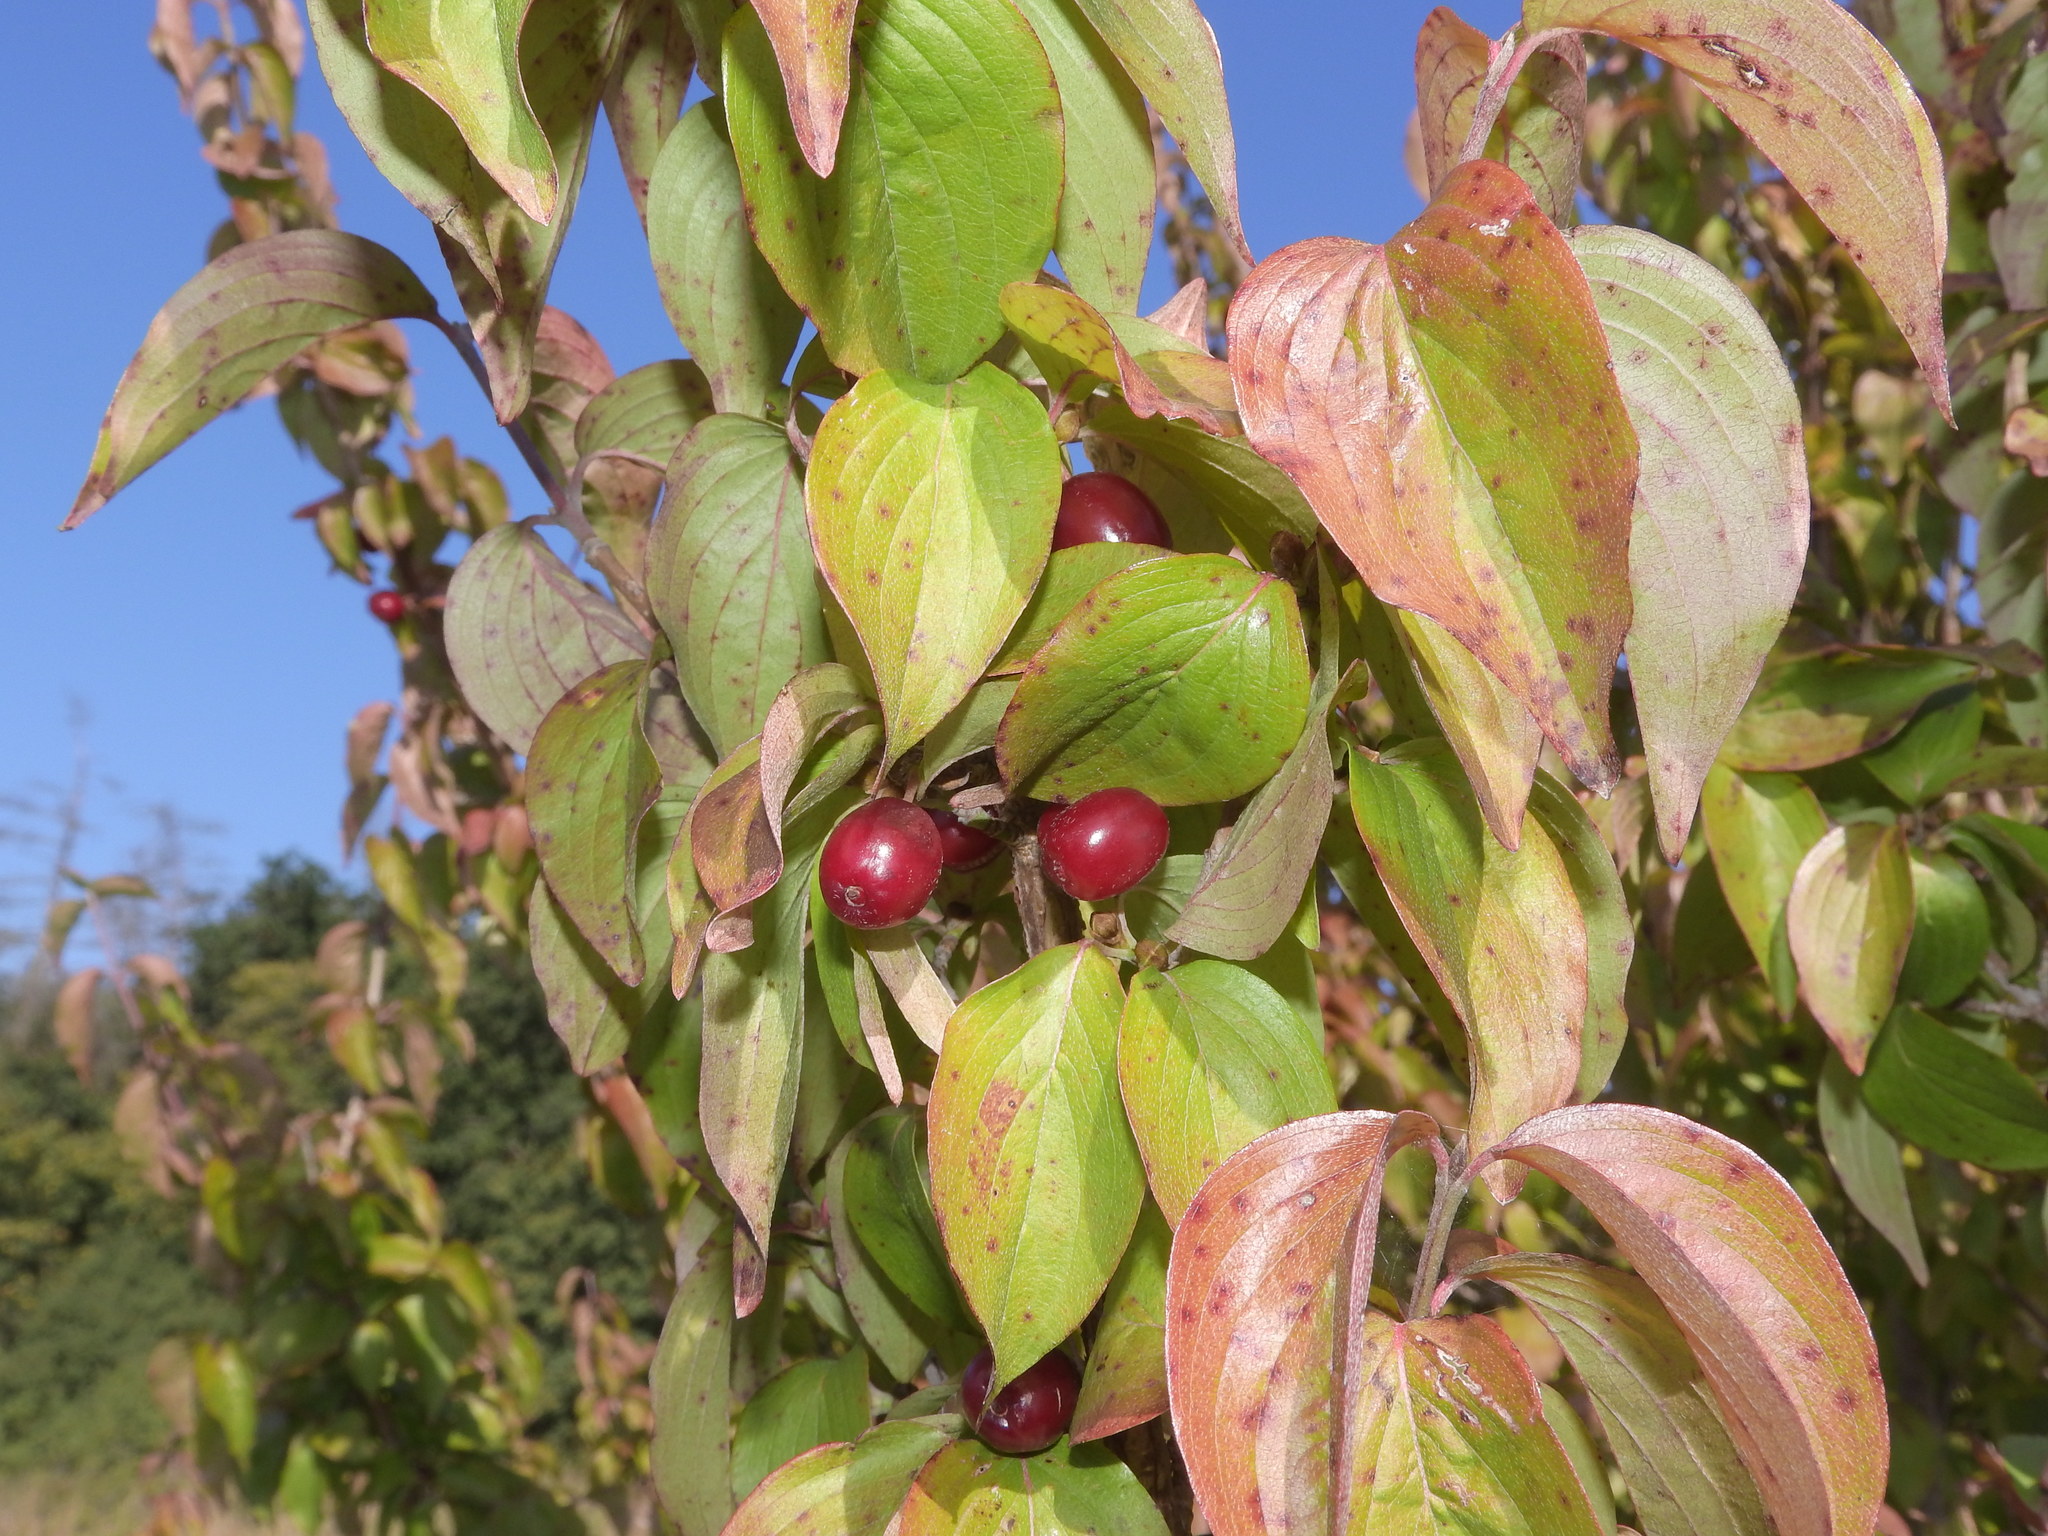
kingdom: Plantae
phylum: Tracheophyta
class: Magnoliopsida
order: Cornales
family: Cornaceae
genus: Cornus
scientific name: Cornus mas
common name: Cornelian-cherry
